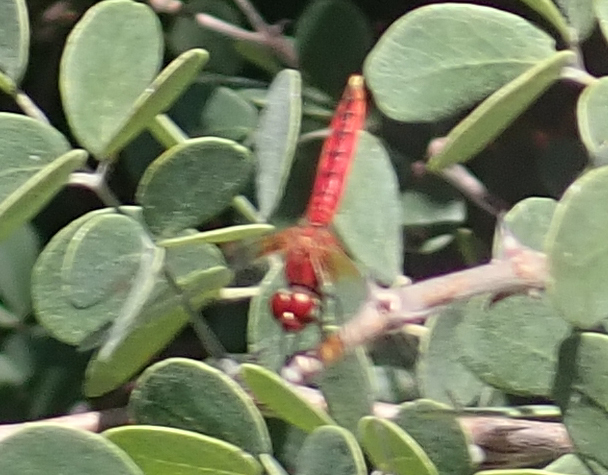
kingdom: Animalia
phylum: Arthropoda
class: Insecta
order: Odonata
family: Libellulidae
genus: Aethriamanta
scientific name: Aethriamanta rezia
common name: Pygmy basker
